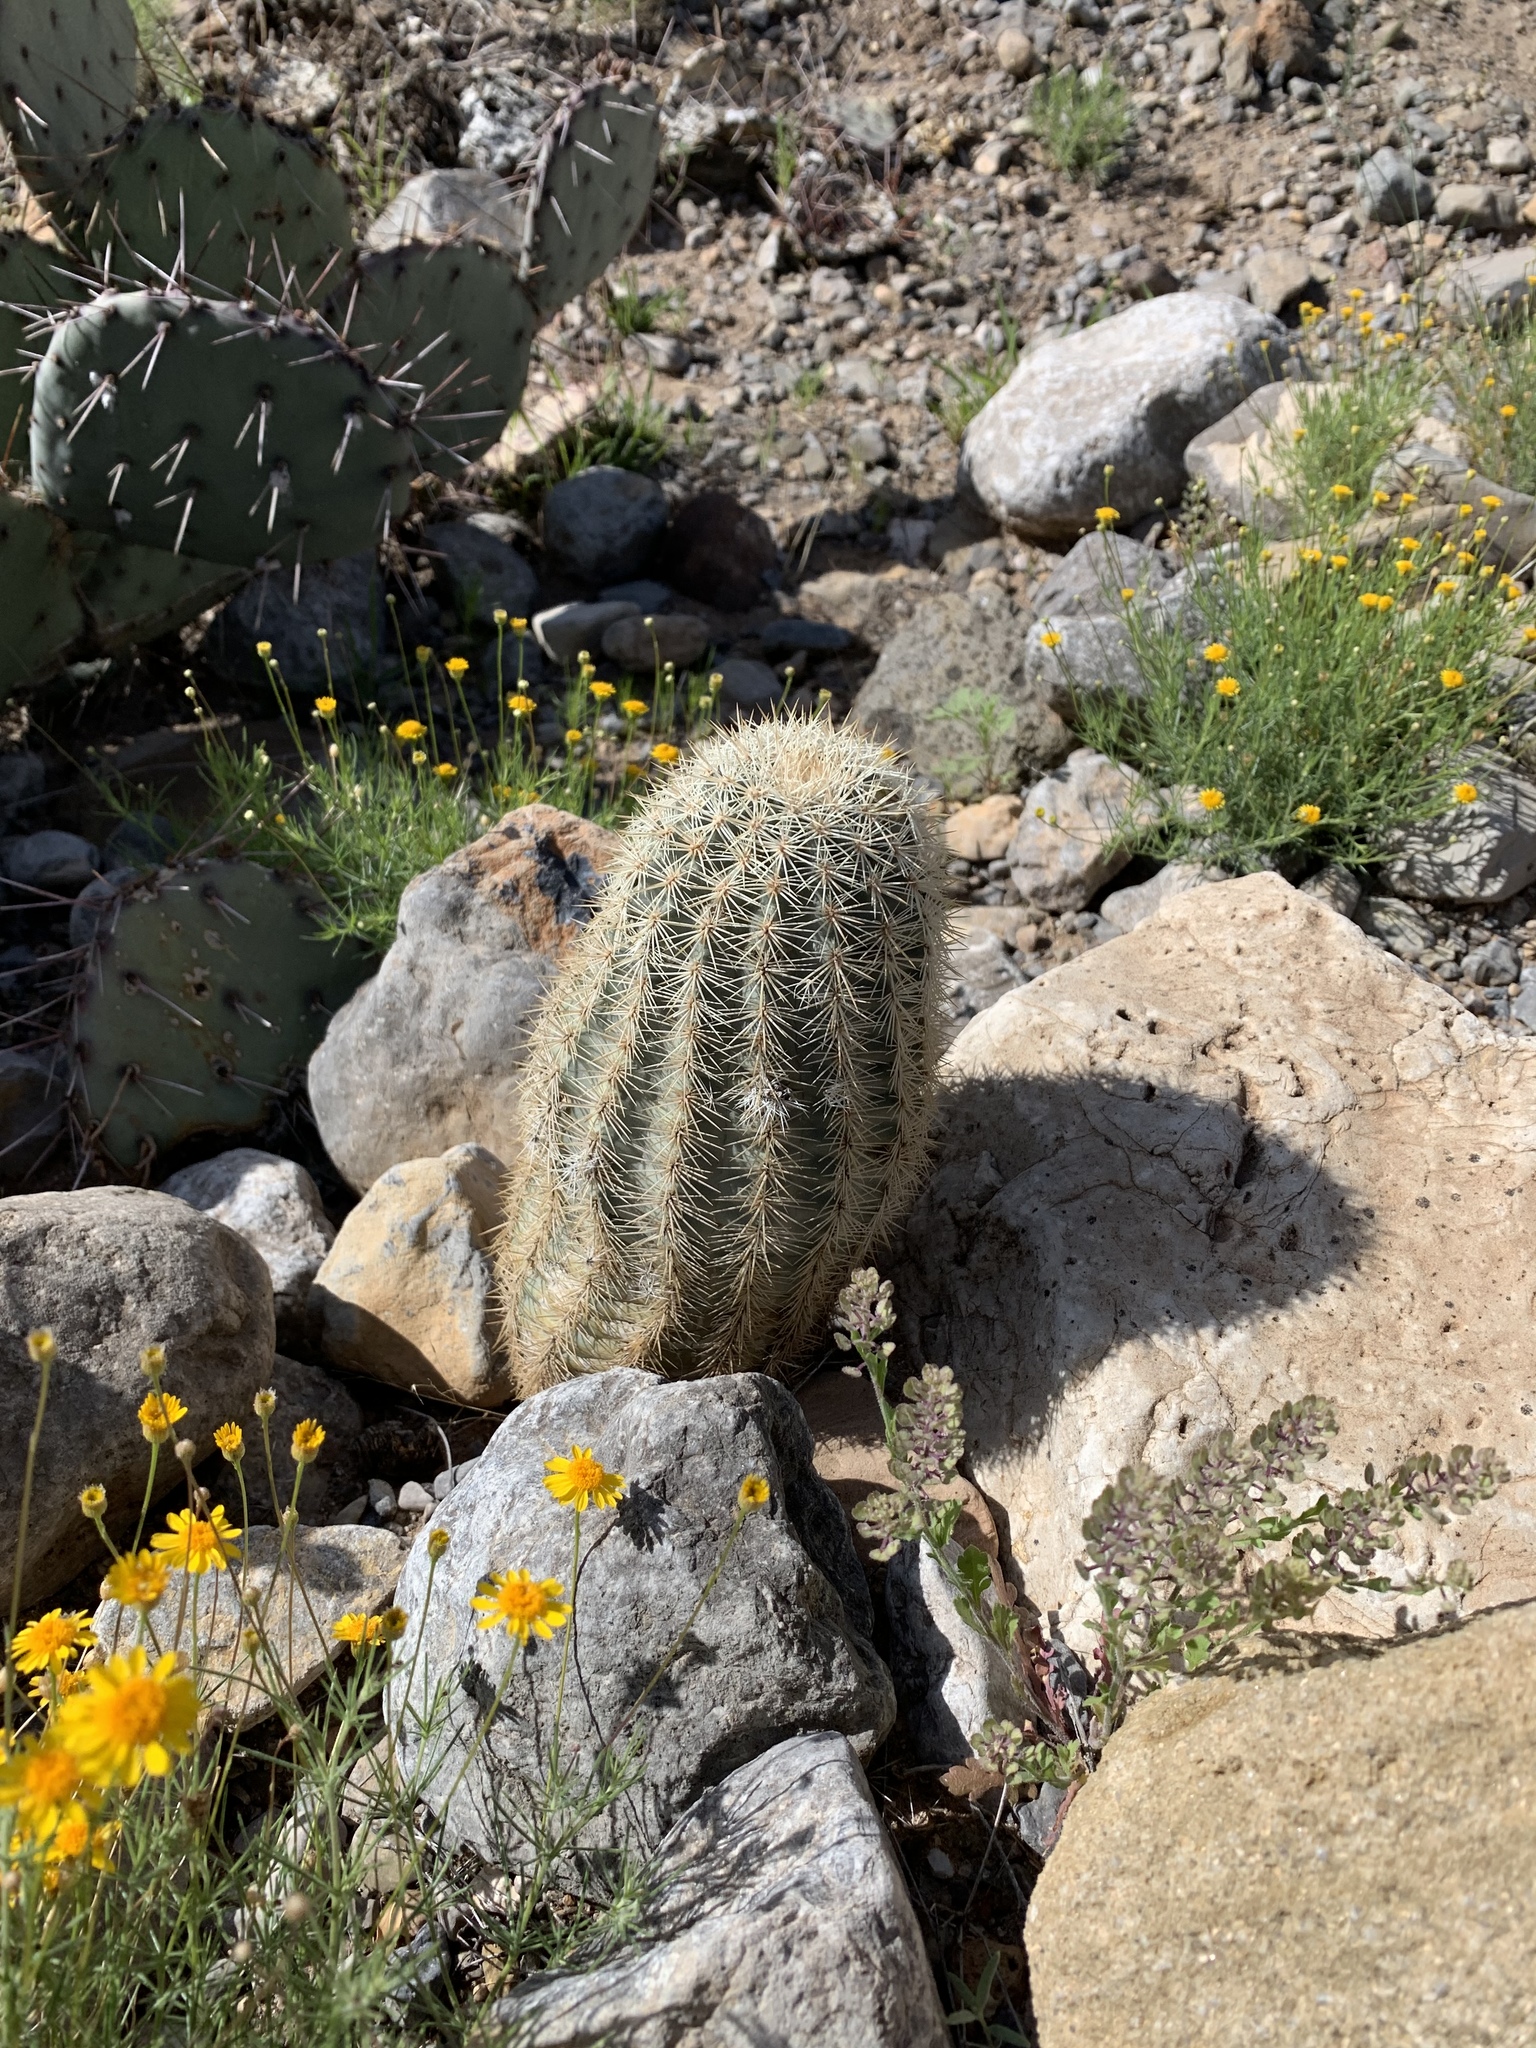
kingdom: Plantae
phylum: Tracheophyta
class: Magnoliopsida
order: Caryophyllales
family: Cactaceae
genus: Echinocereus
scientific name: Echinocereus dasyacanthus
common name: Spiny hedgehog cactus
